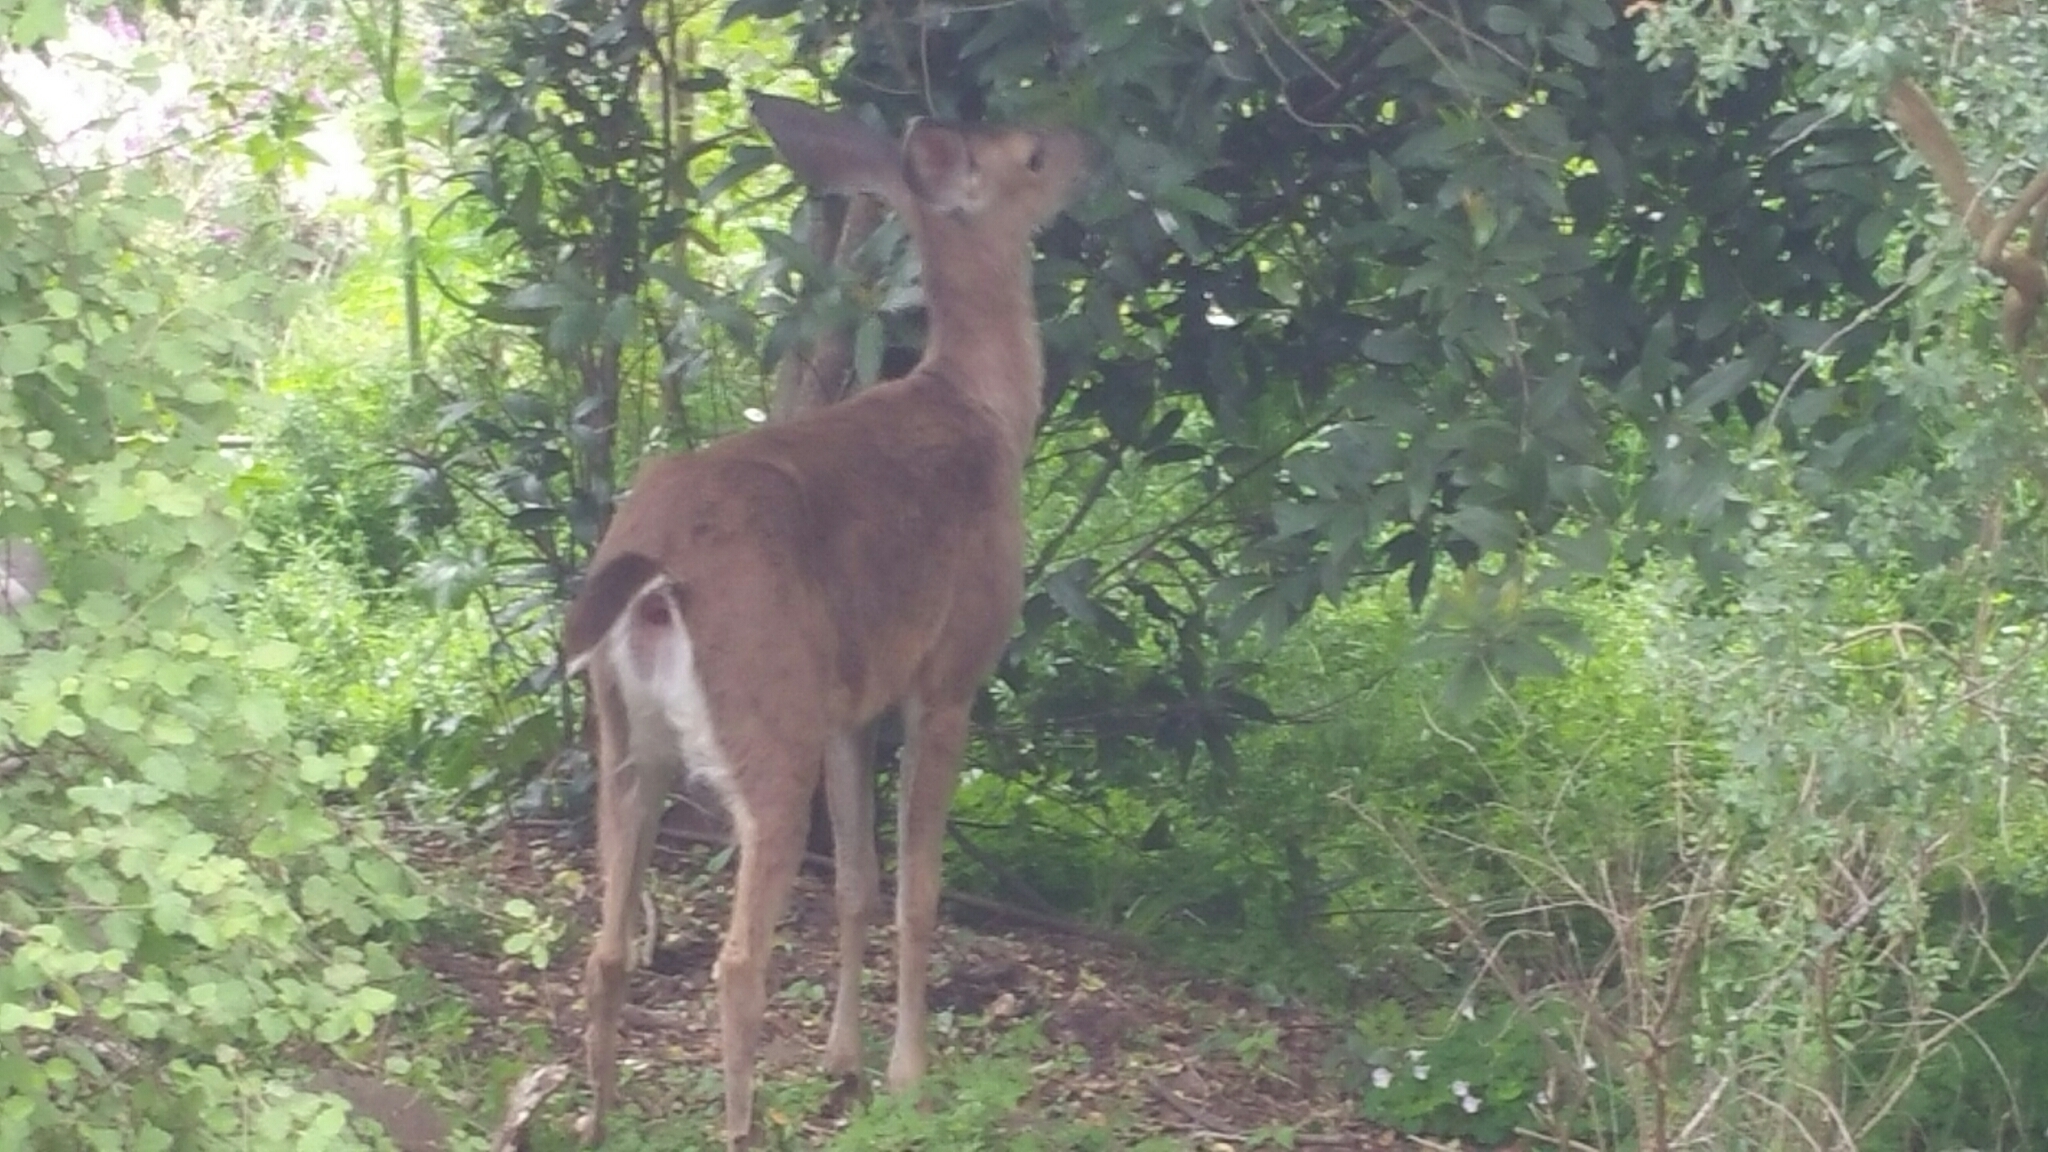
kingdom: Animalia
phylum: Chordata
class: Mammalia
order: Artiodactyla
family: Cervidae
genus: Odocoileus
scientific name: Odocoileus hemionus
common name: Mule deer
